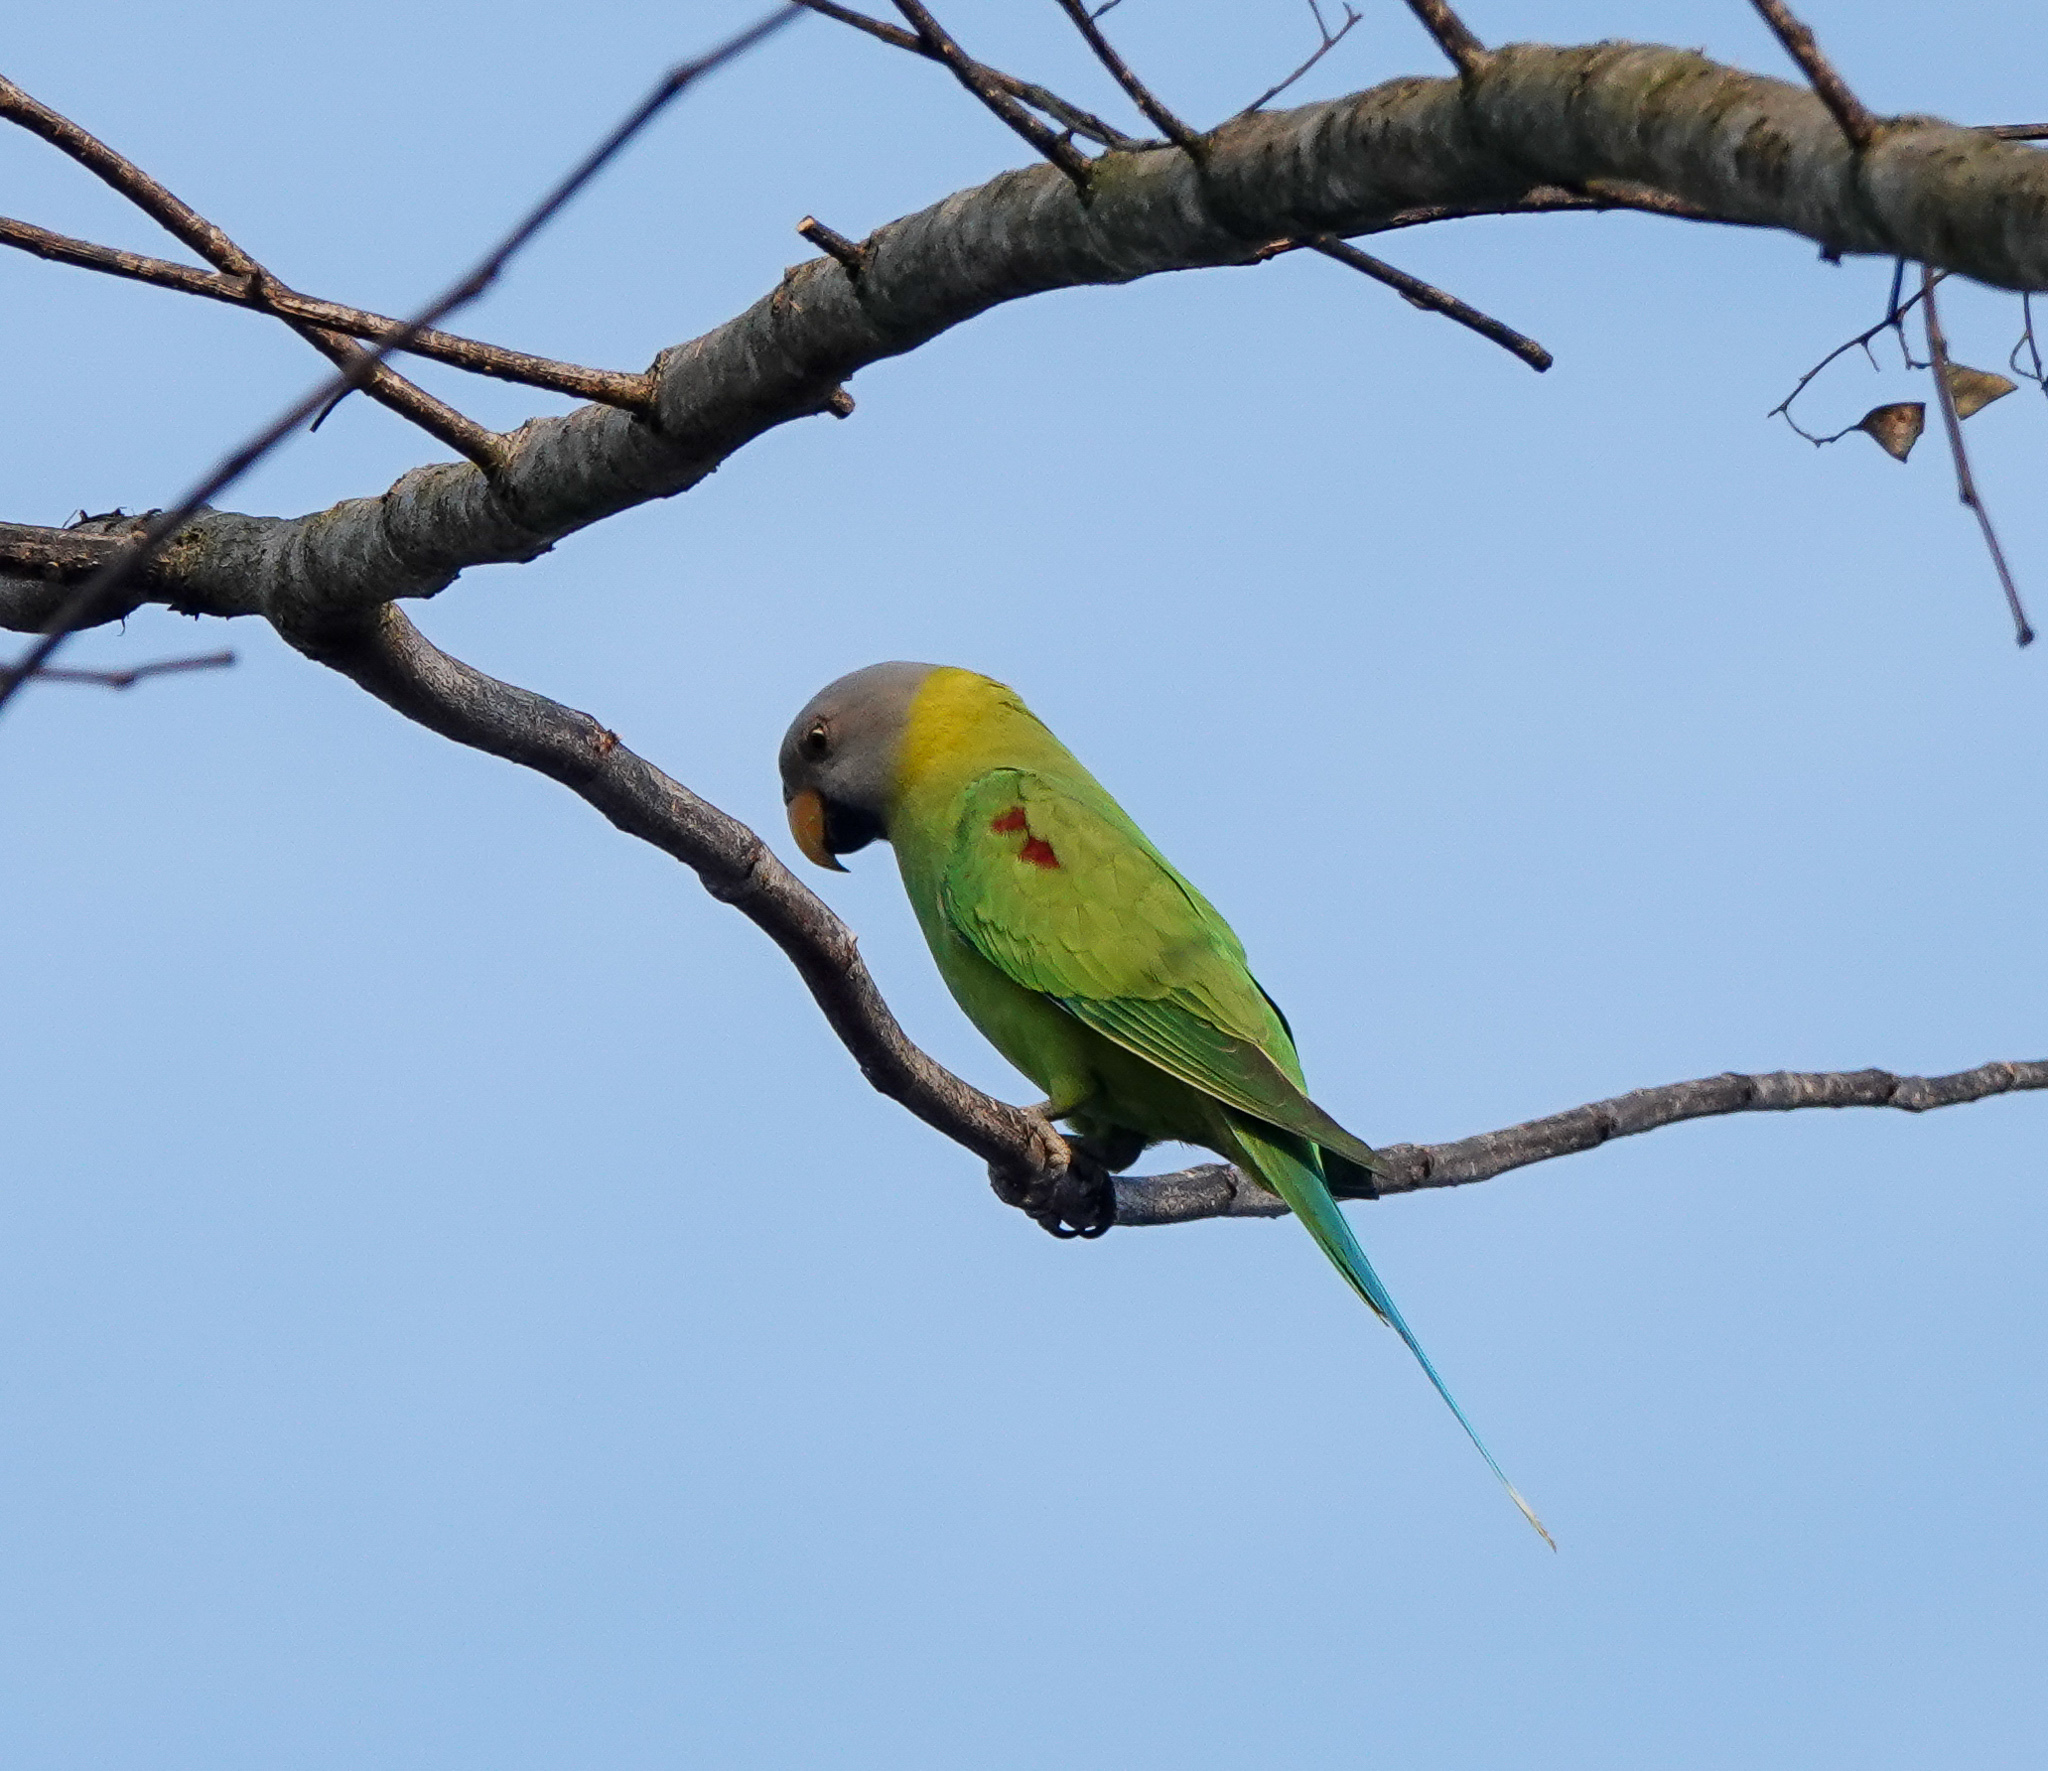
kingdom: Animalia
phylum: Chordata
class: Aves
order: Psittaciformes
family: Psittacidae
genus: Psittacula
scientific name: Psittacula roseata
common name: Blossom-headed parakeet
